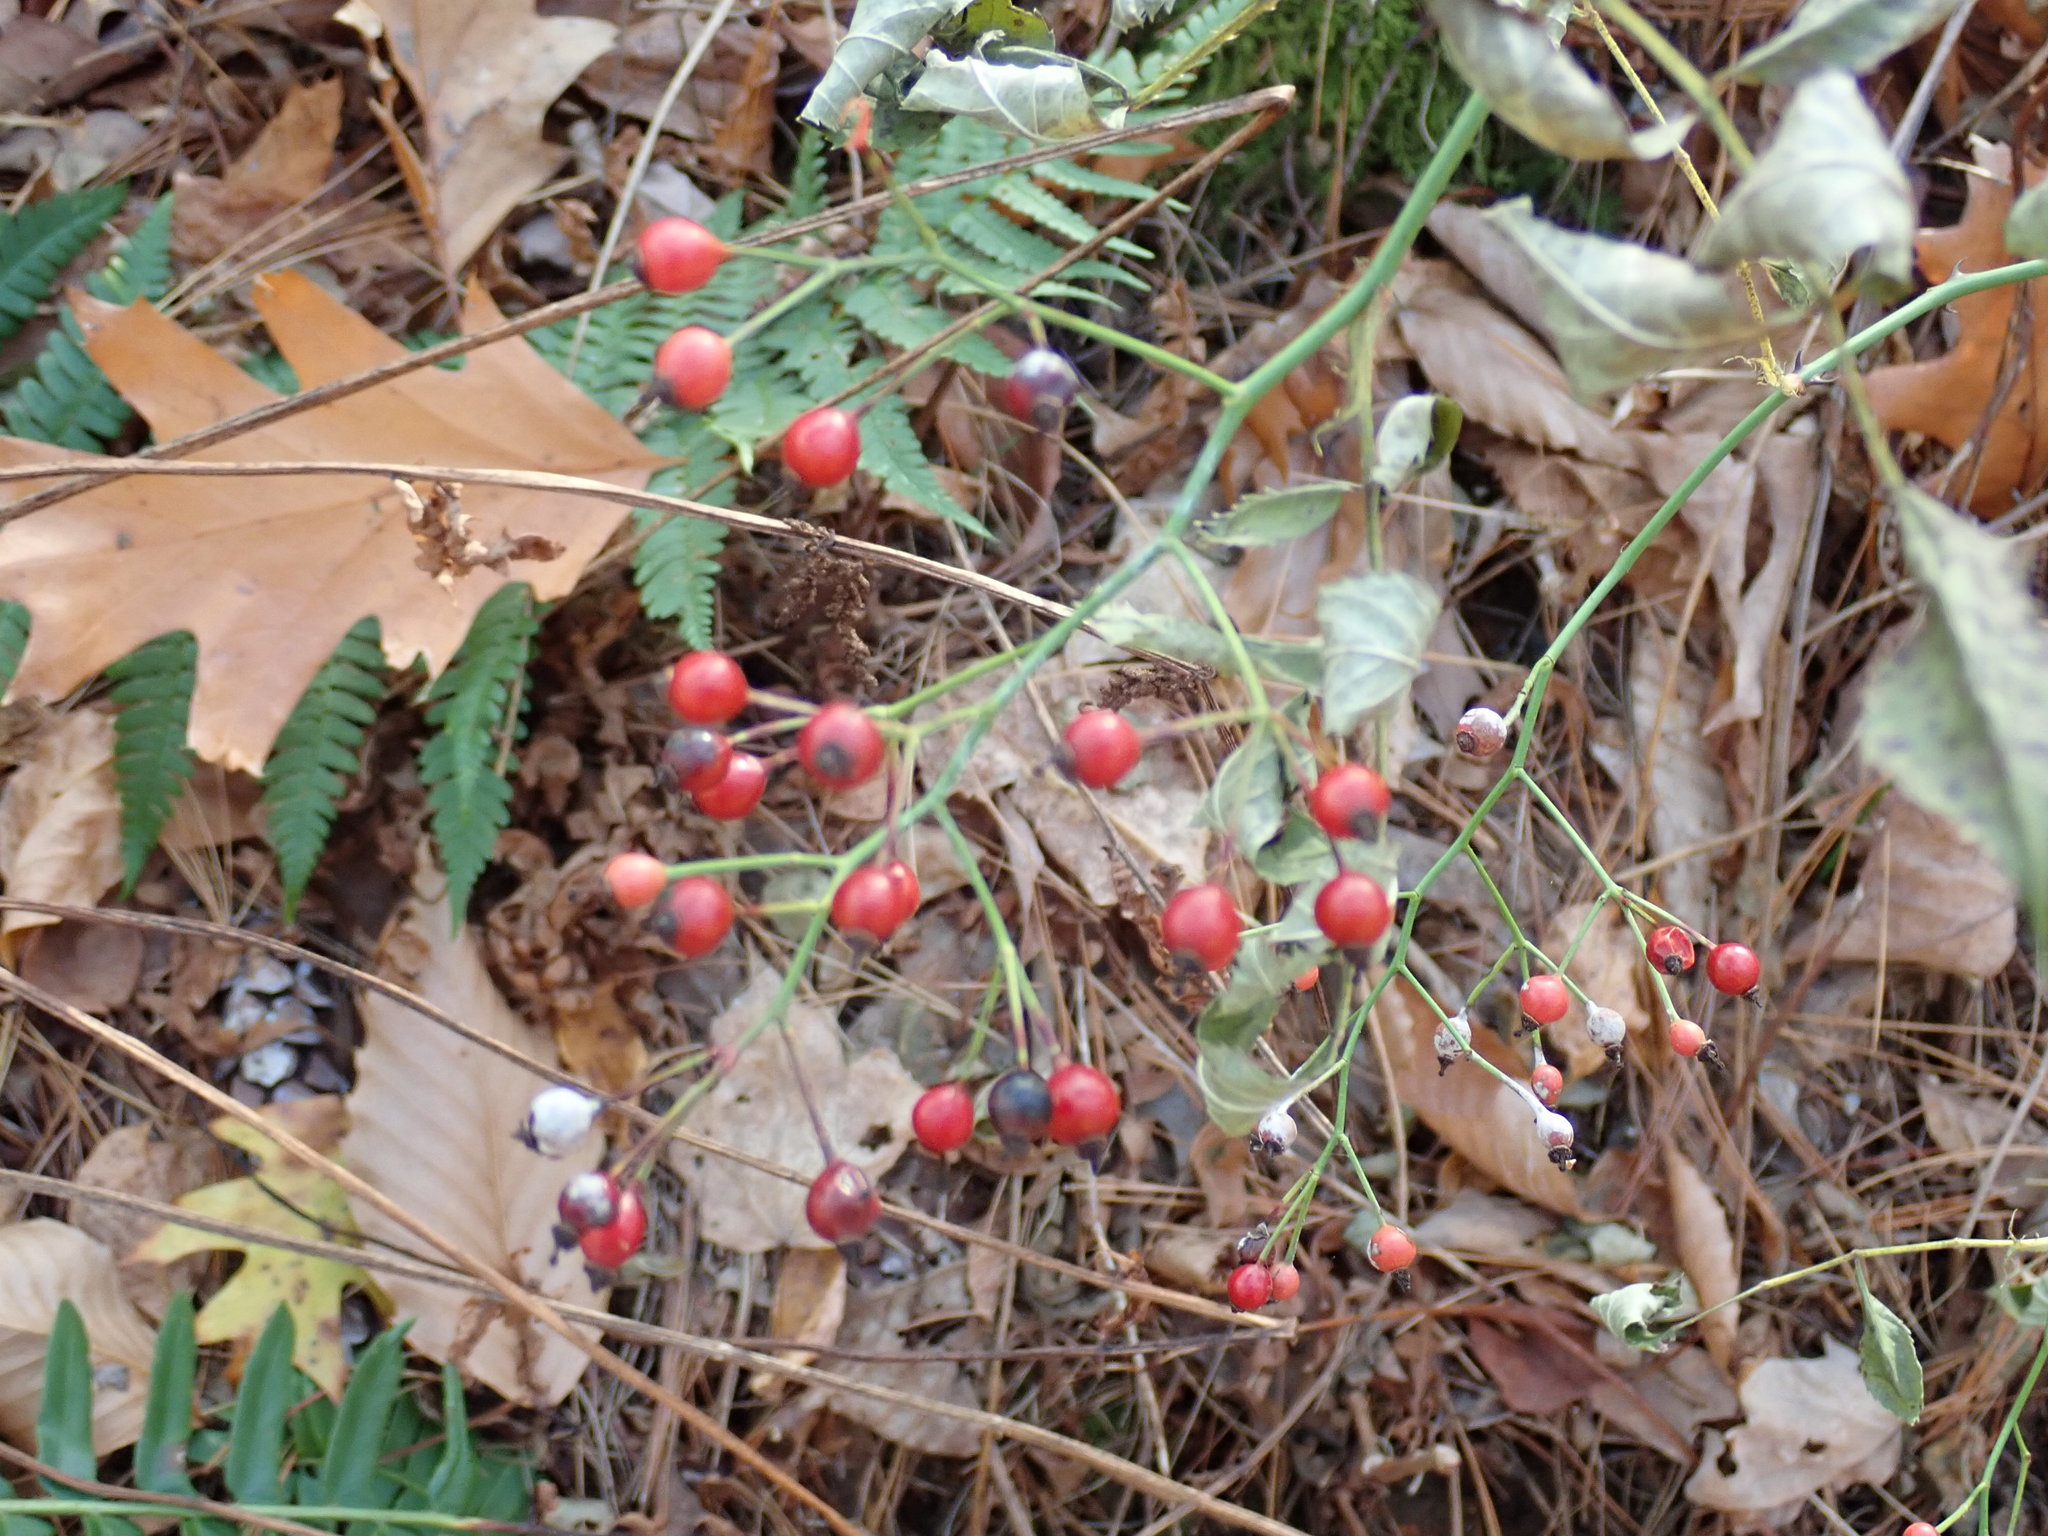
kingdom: Plantae
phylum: Tracheophyta
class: Magnoliopsida
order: Rosales
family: Rosaceae
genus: Rosa
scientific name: Rosa multiflora
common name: Multiflora rose
